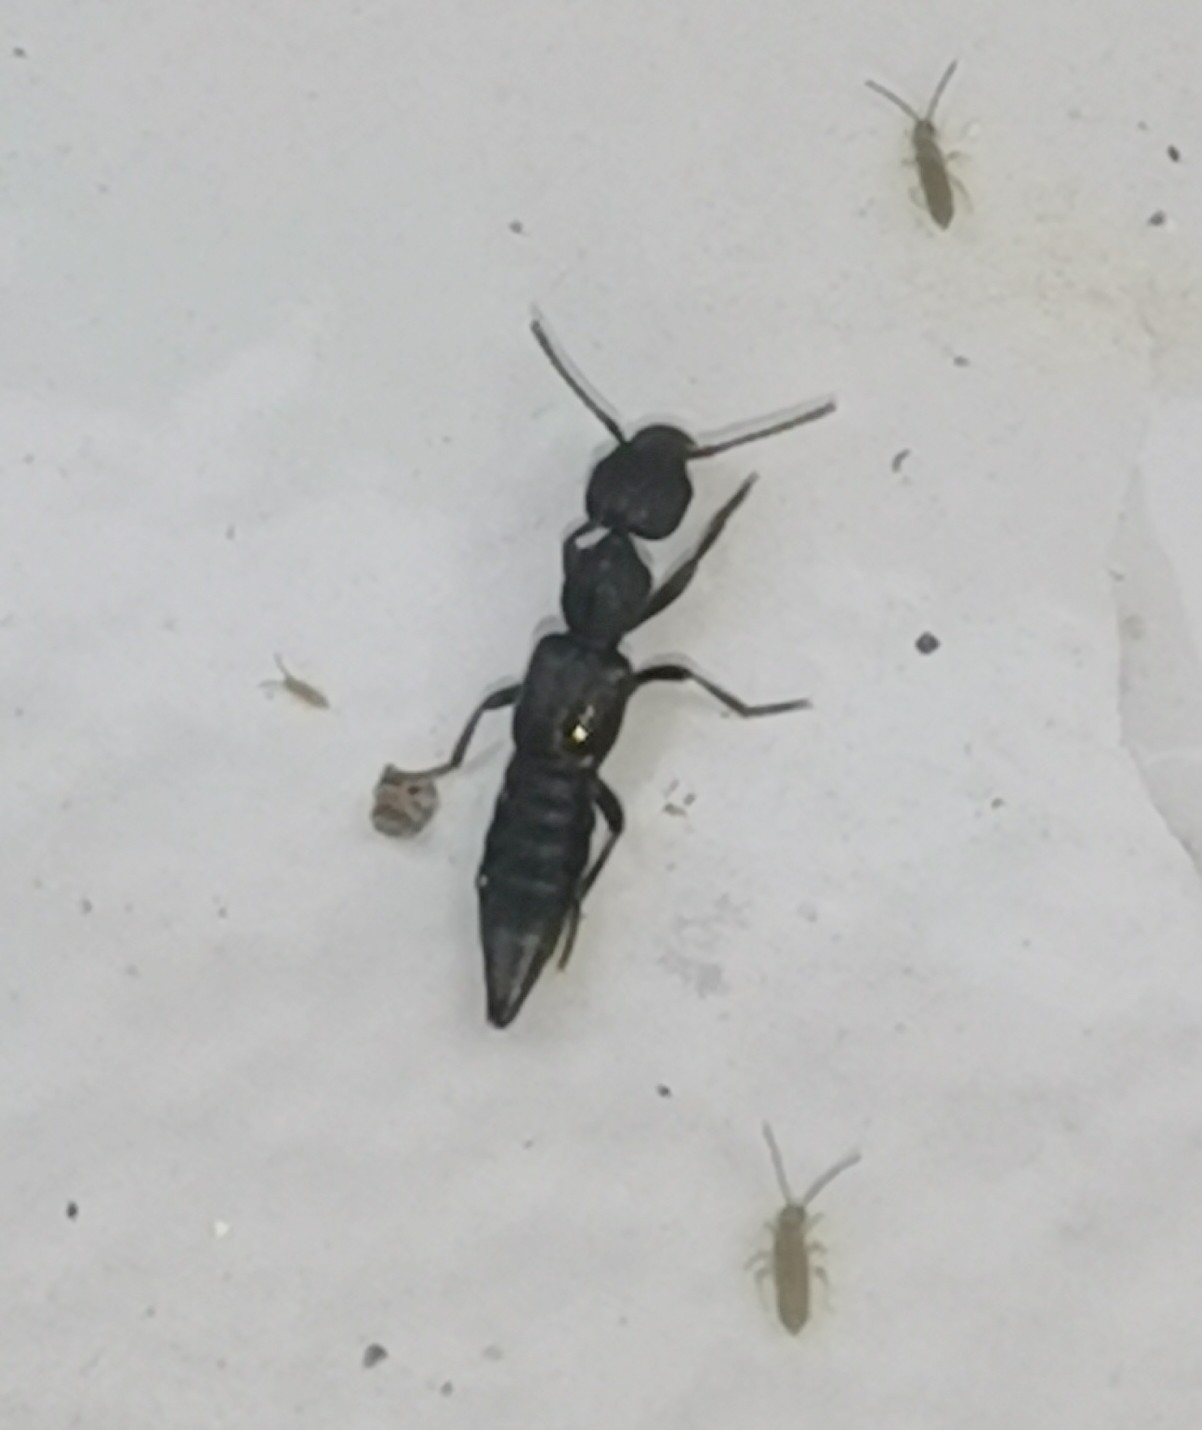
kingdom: Animalia
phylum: Arthropoda
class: Insecta
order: Coleoptera
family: Staphylinidae
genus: Rugilus
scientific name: Rugilus rufipes
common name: Staph beetle
